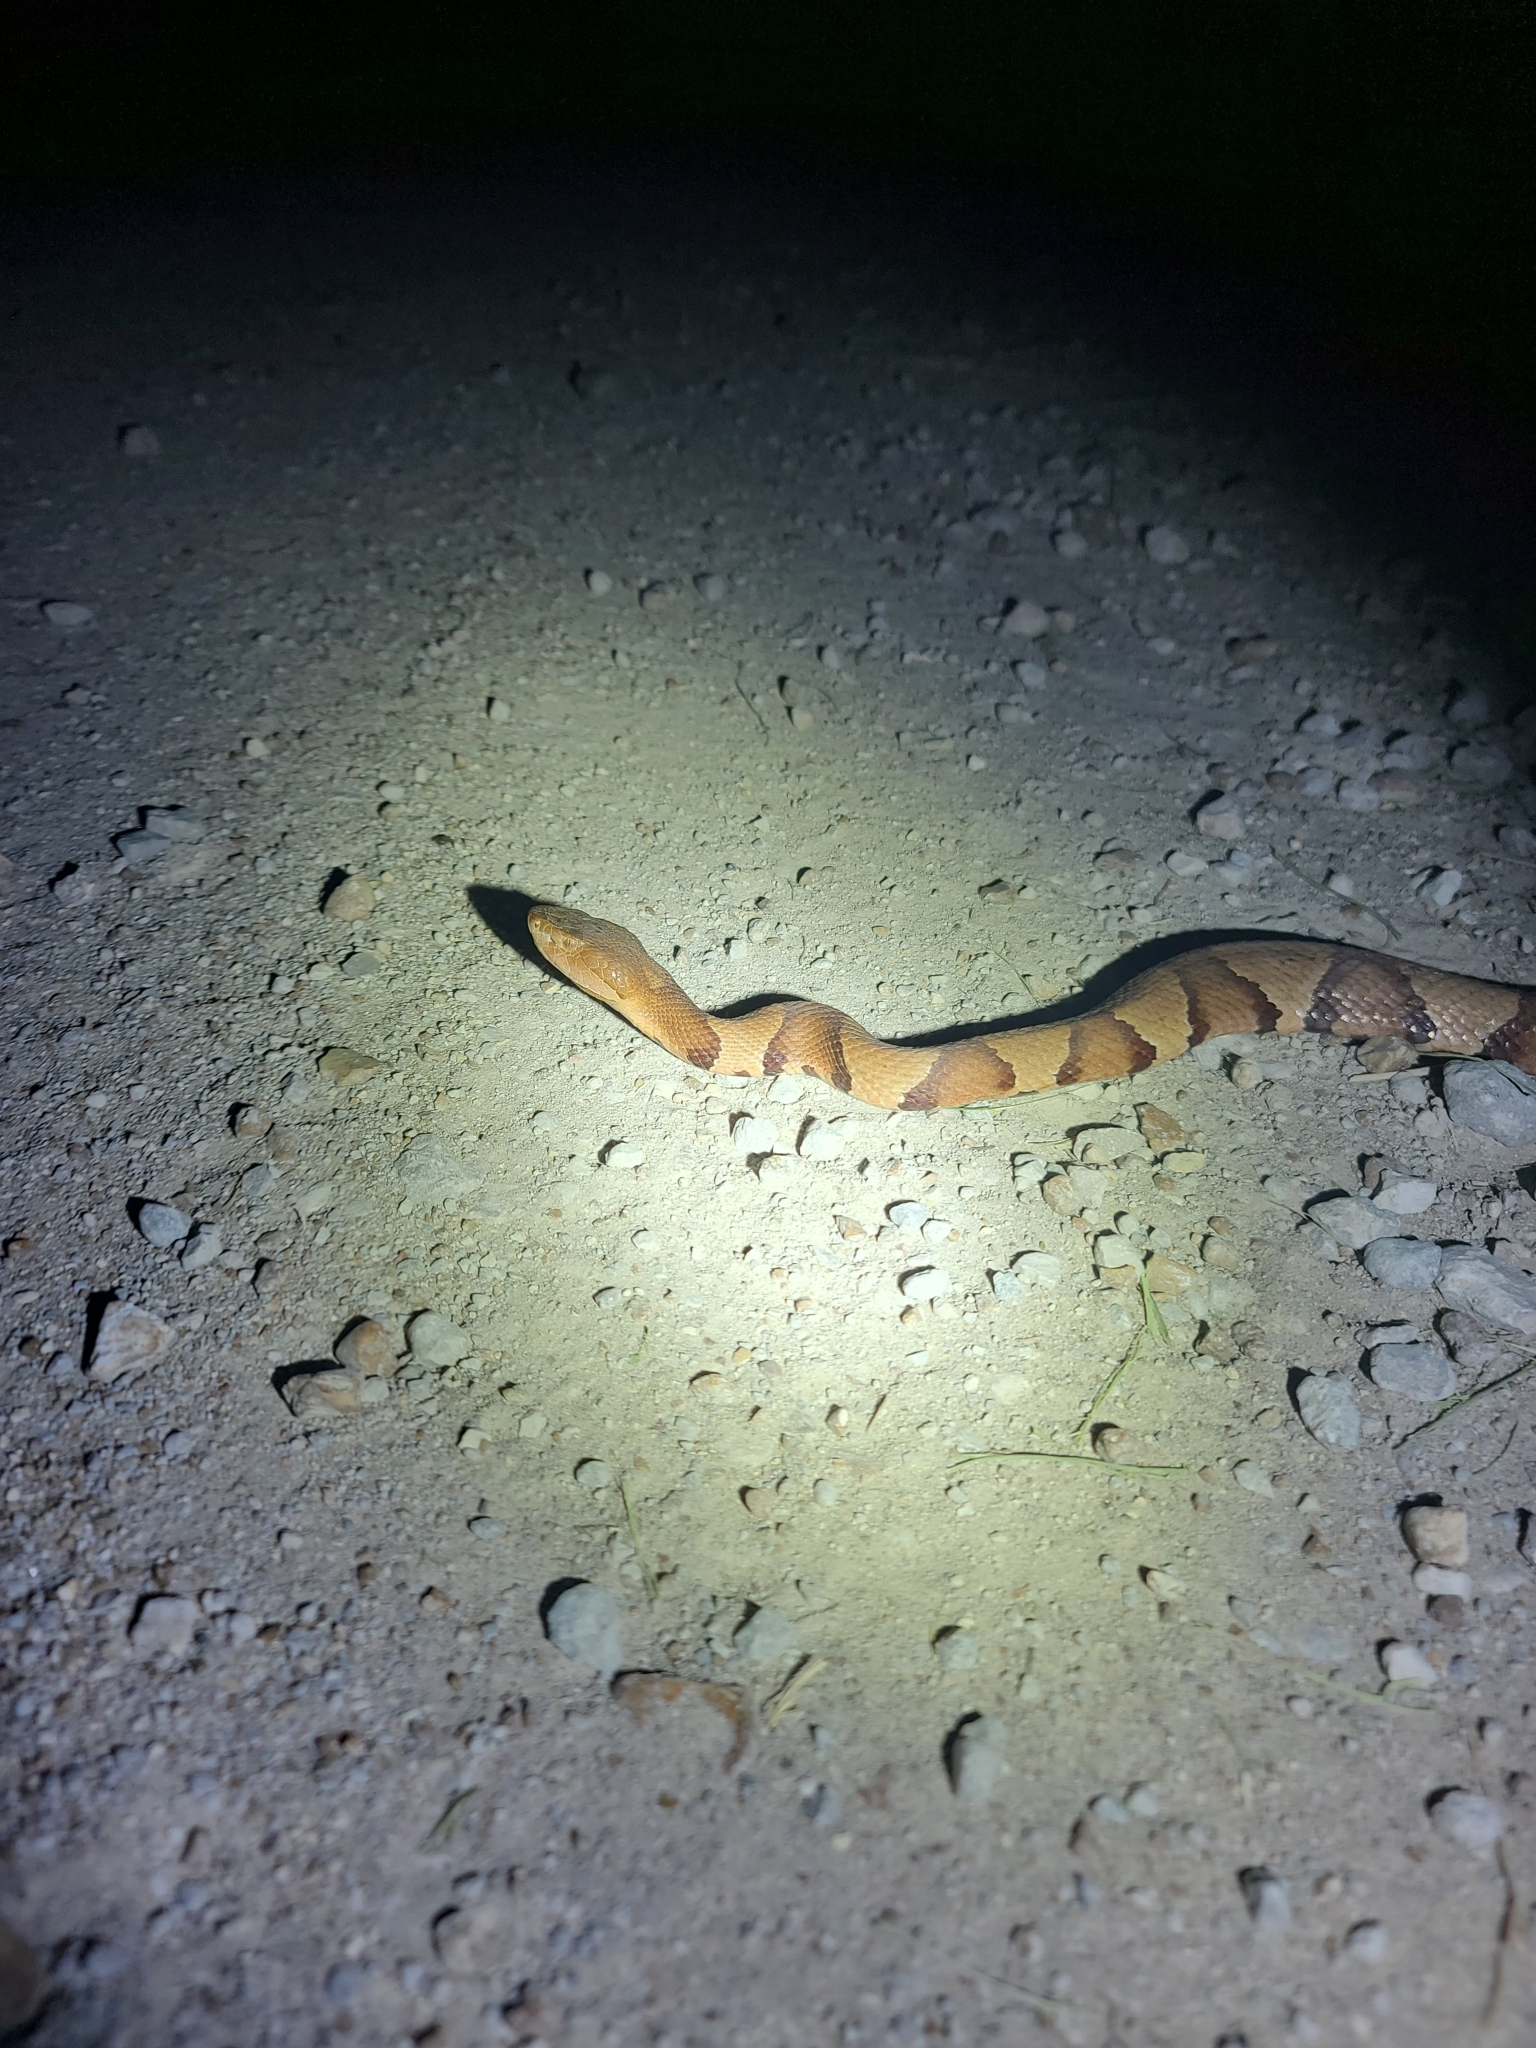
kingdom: Animalia
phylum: Chordata
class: Squamata
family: Viperidae
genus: Agkistrodon
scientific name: Agkistrodon laticinctus
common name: Broad-banded copperhead
